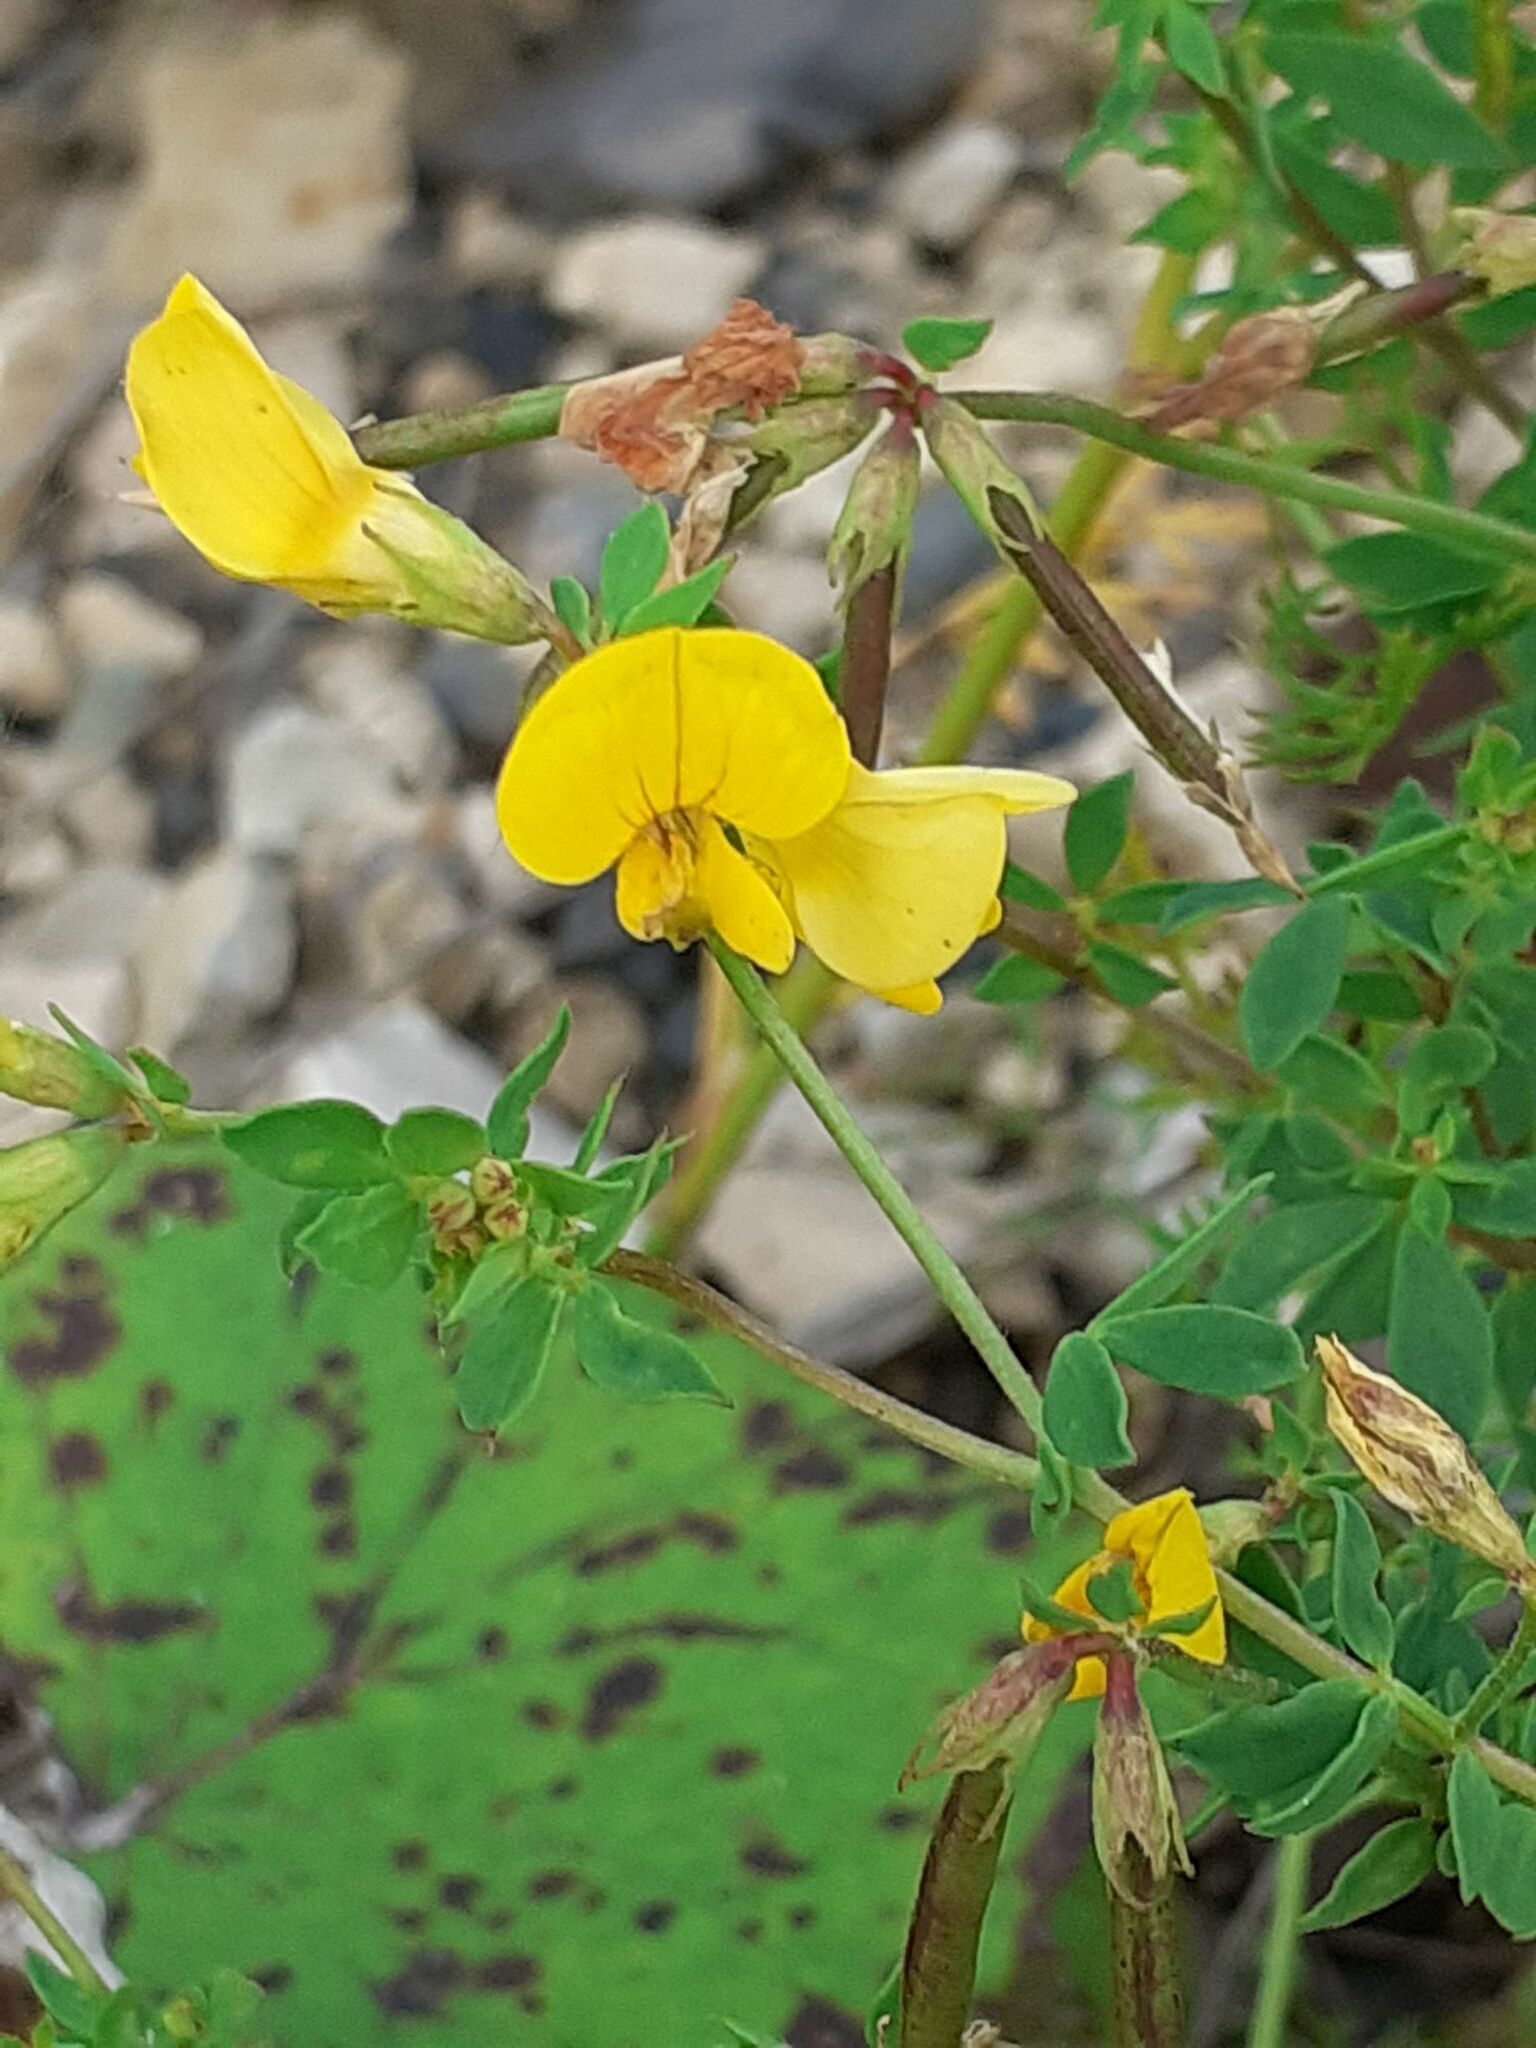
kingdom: Plantae
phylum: Tracheophyta
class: Magnoliopsida
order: Fabales
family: Fabaceae
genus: Lotus
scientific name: Lotus corniculatus
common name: Common bird's-foot-trefoil
